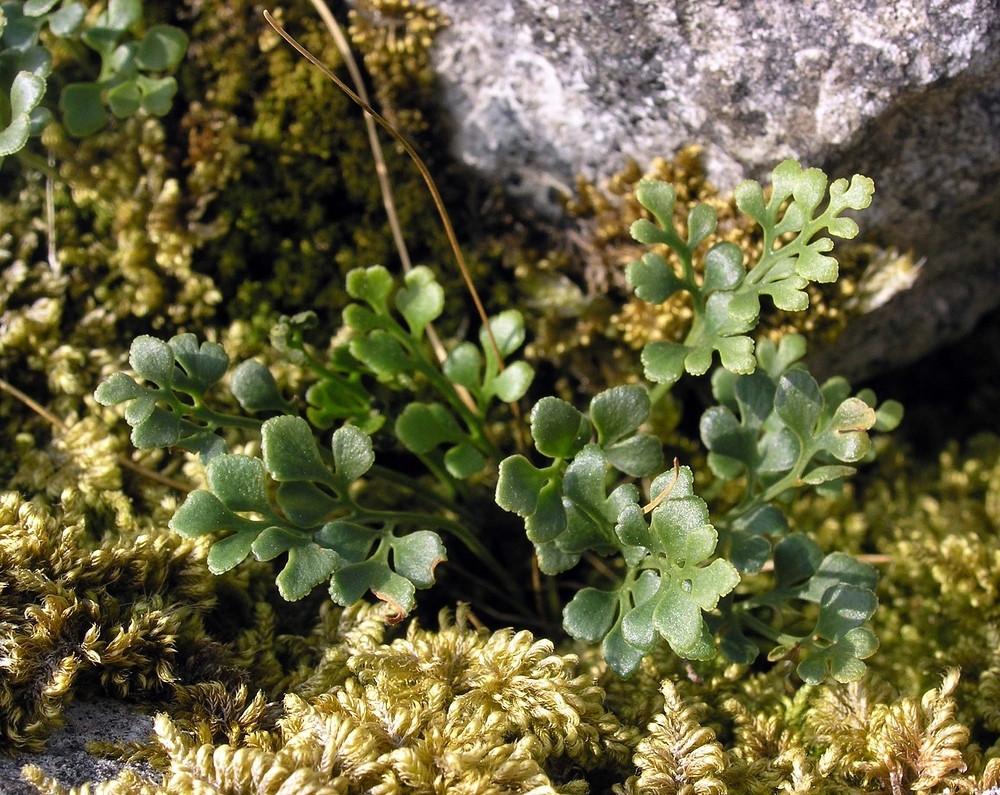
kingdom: Plantae
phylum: Tracheophyta
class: Polypodiopsida
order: Polypodiales
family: Aspleniaceae
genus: Asplenium
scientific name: Asplenium ruta-muraria
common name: Wall-rue
